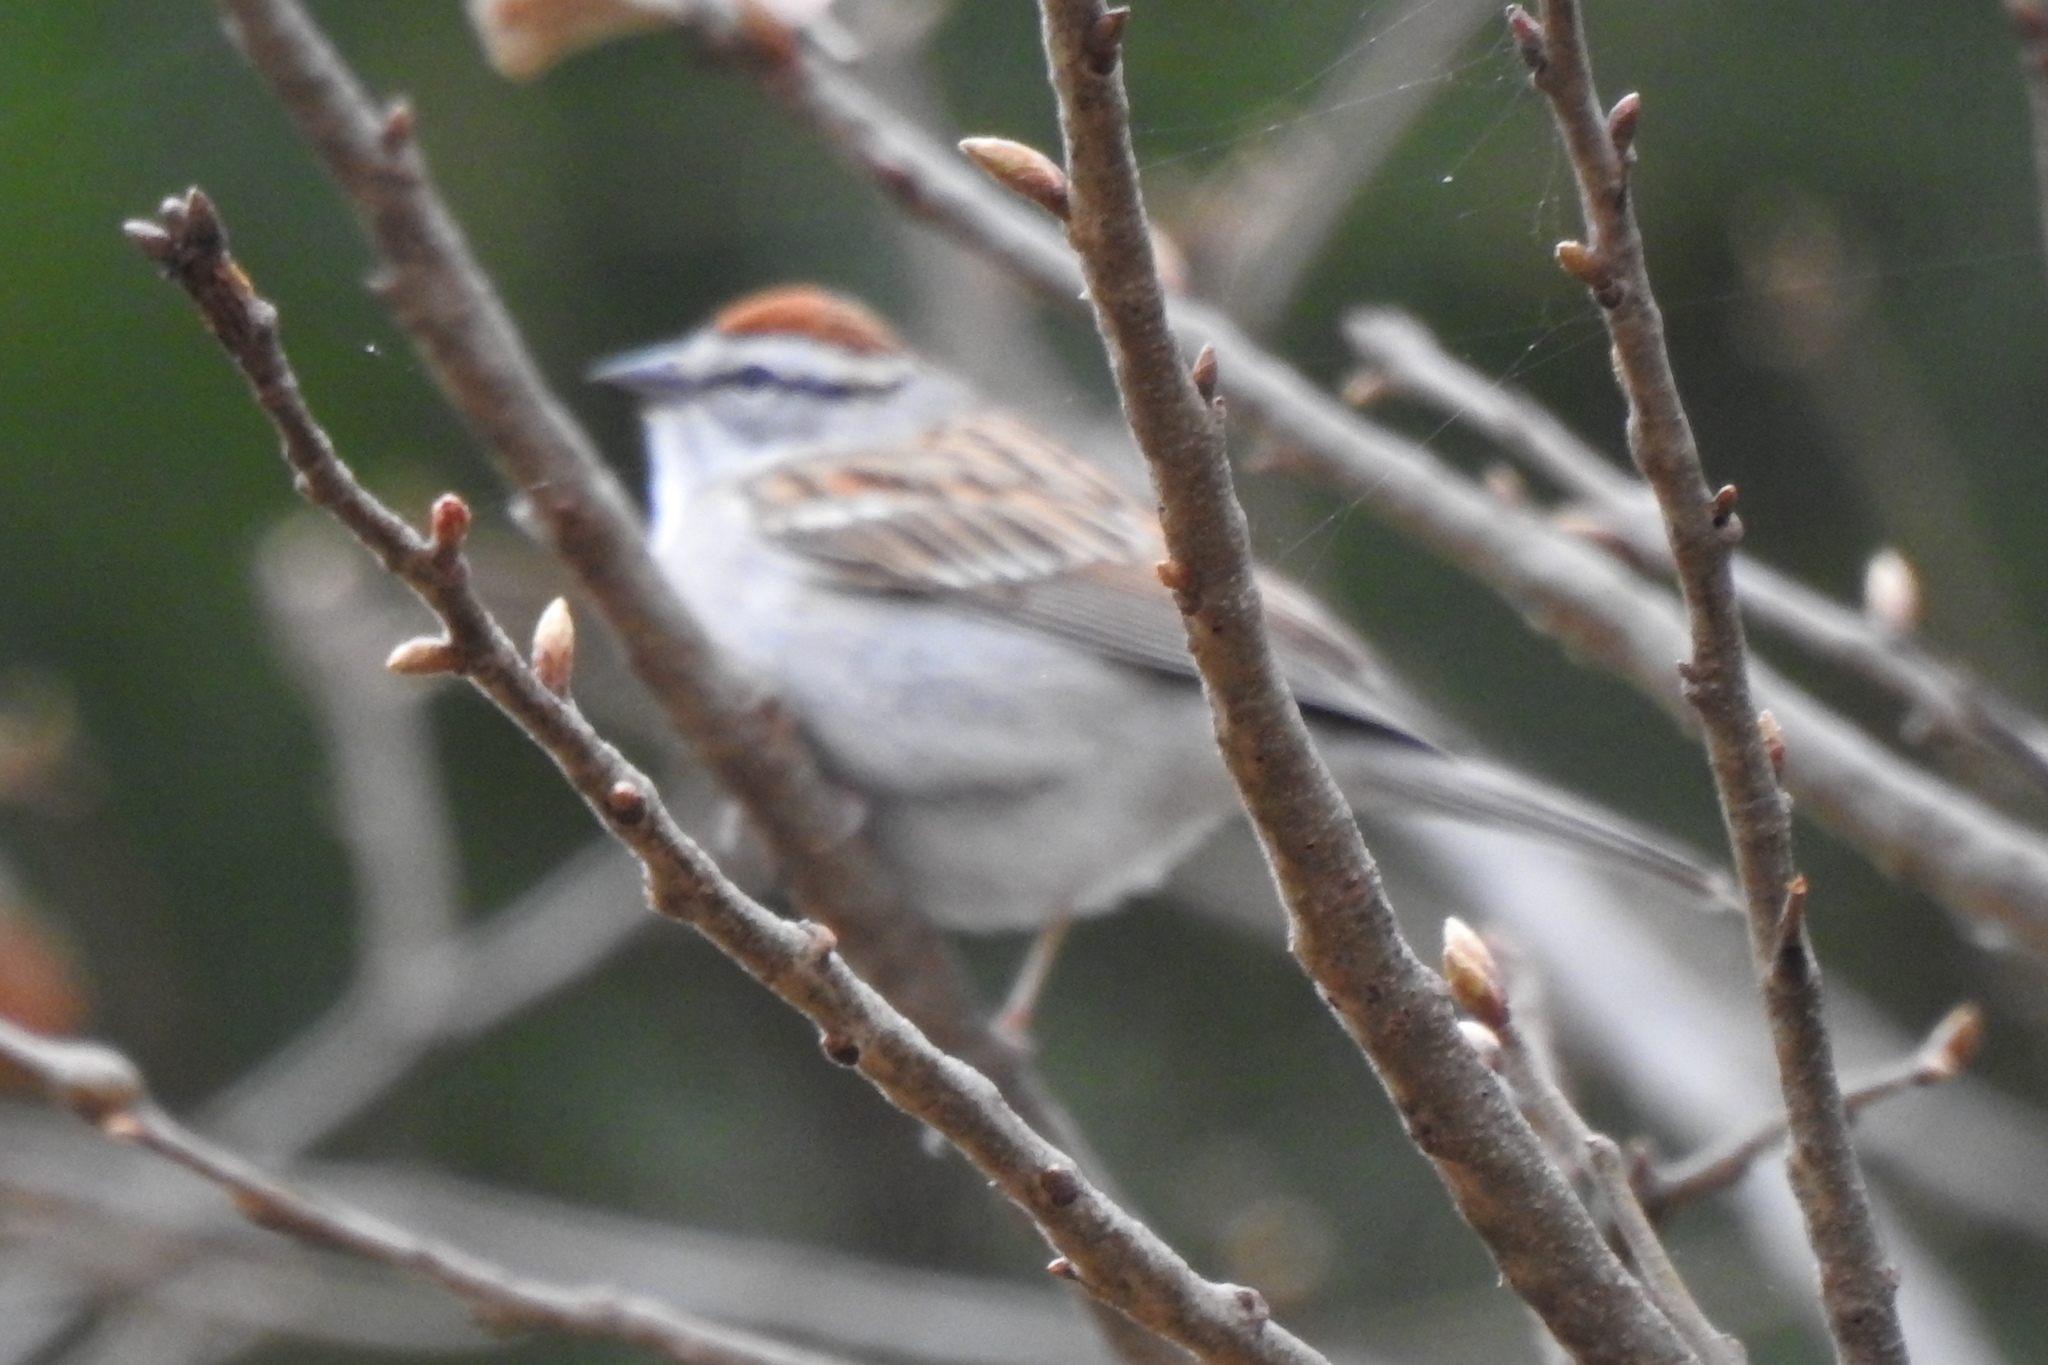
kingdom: Animalia
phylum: Chordata
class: Aves
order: Passeriformes
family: Passerellidae
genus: Spizella
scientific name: Spizella passerina
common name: Chipping sparrow
